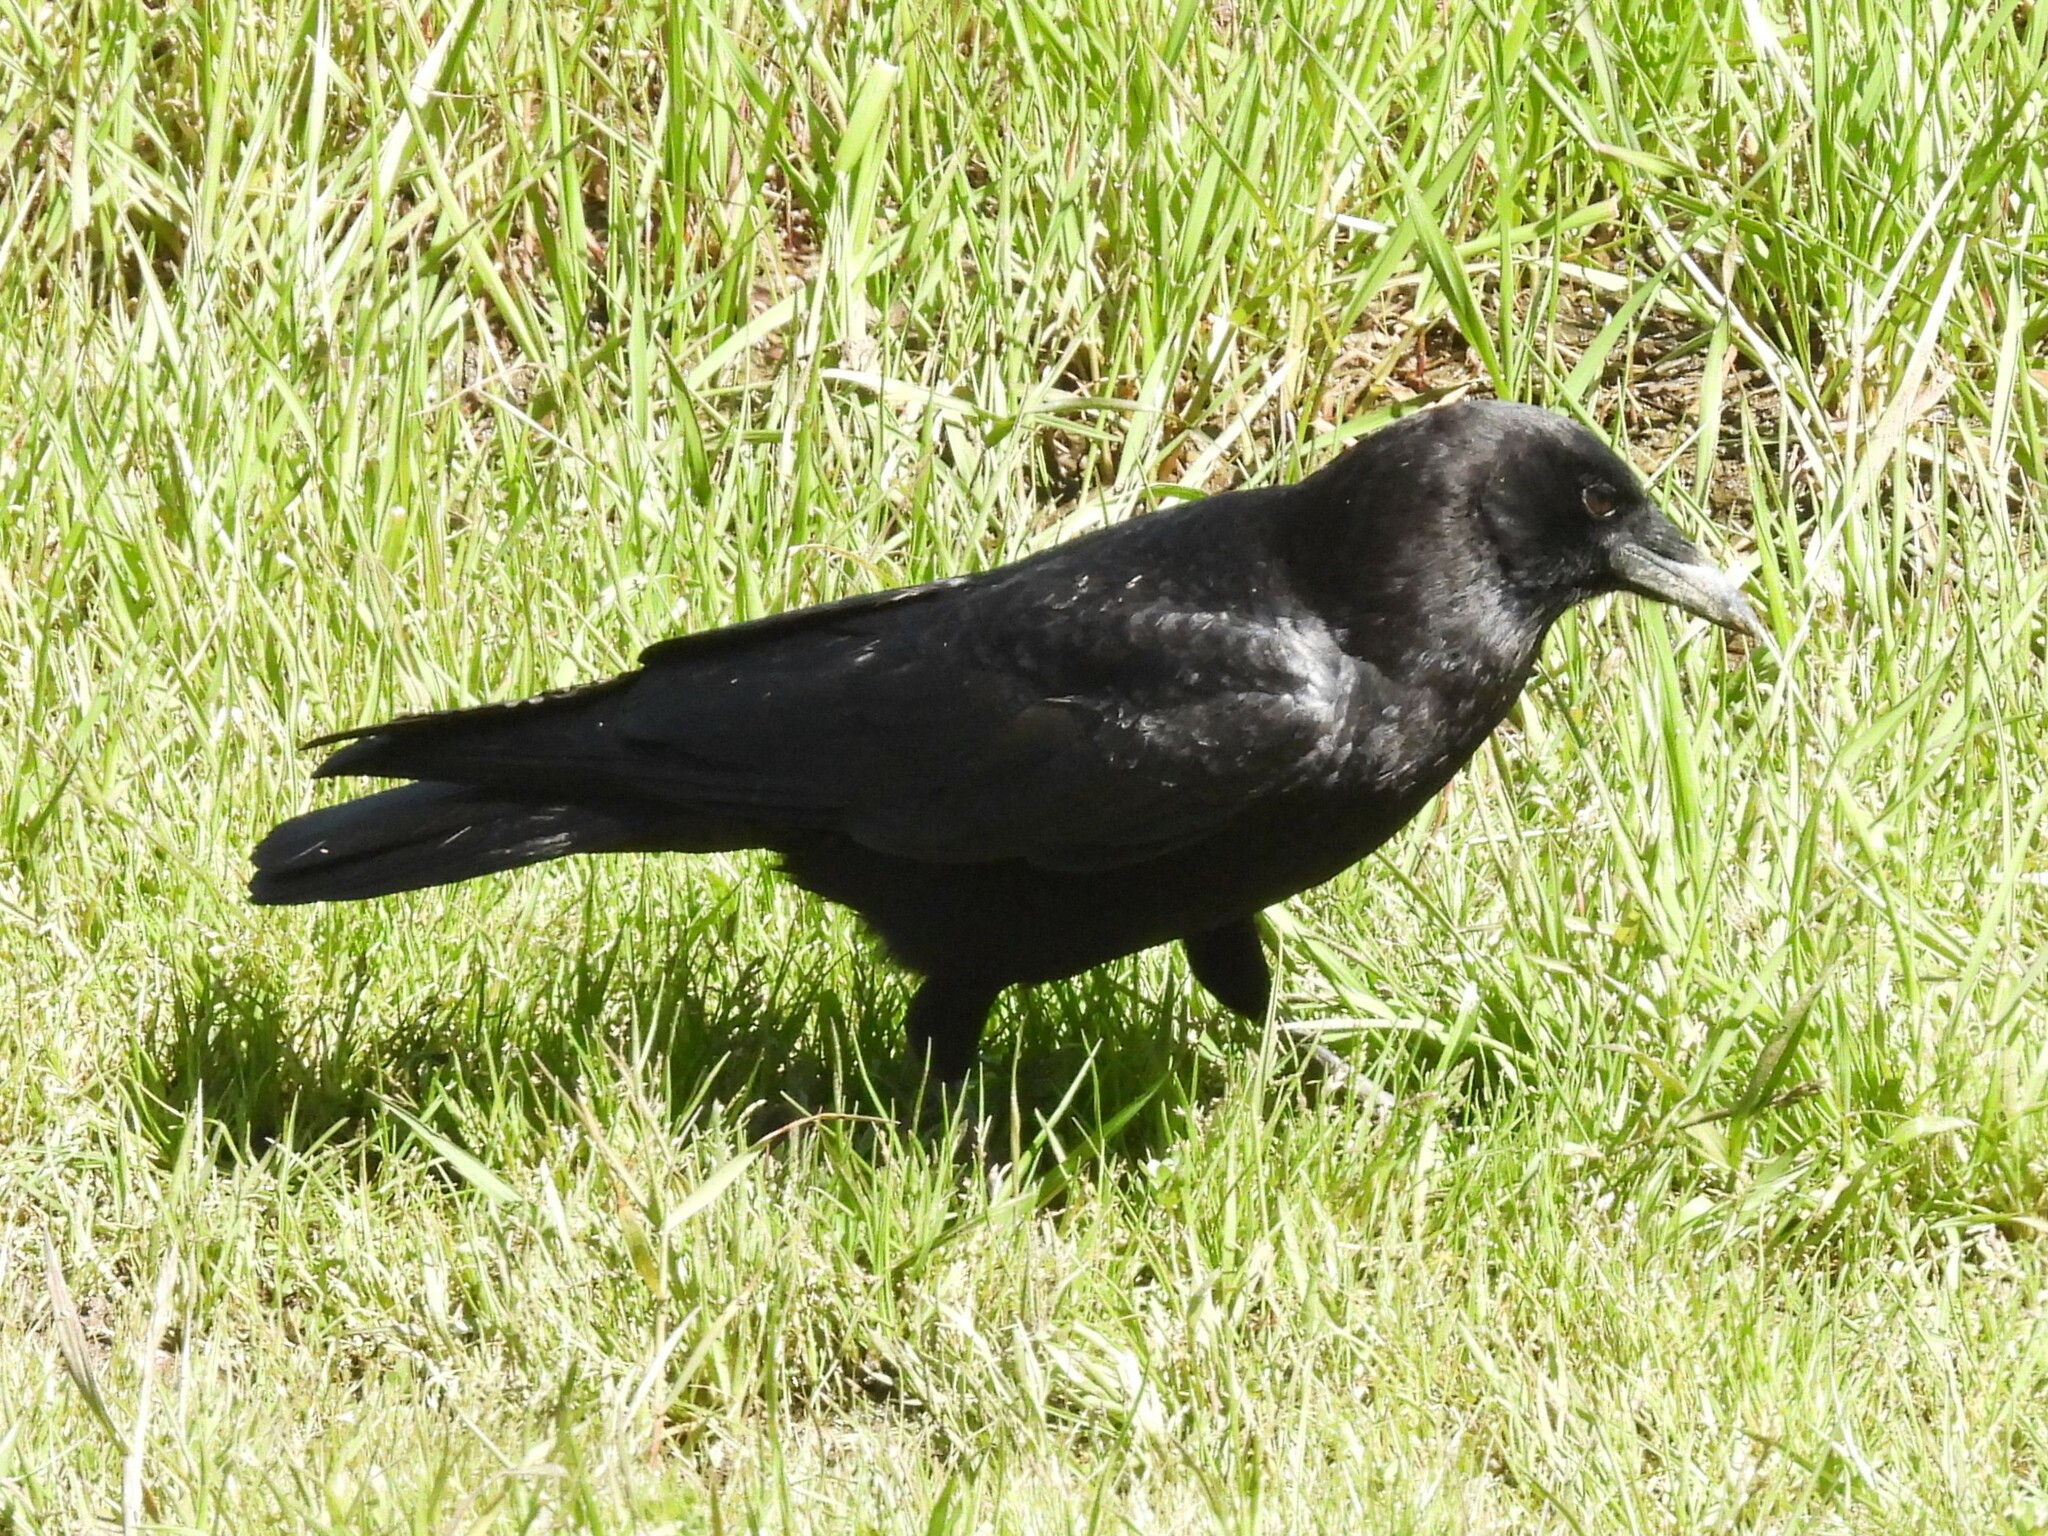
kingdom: Animalia
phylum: Chordata
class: Aves
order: Passeriformes
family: Corvidae
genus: Corvus
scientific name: Corvus brachyrhynchos
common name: American crow
